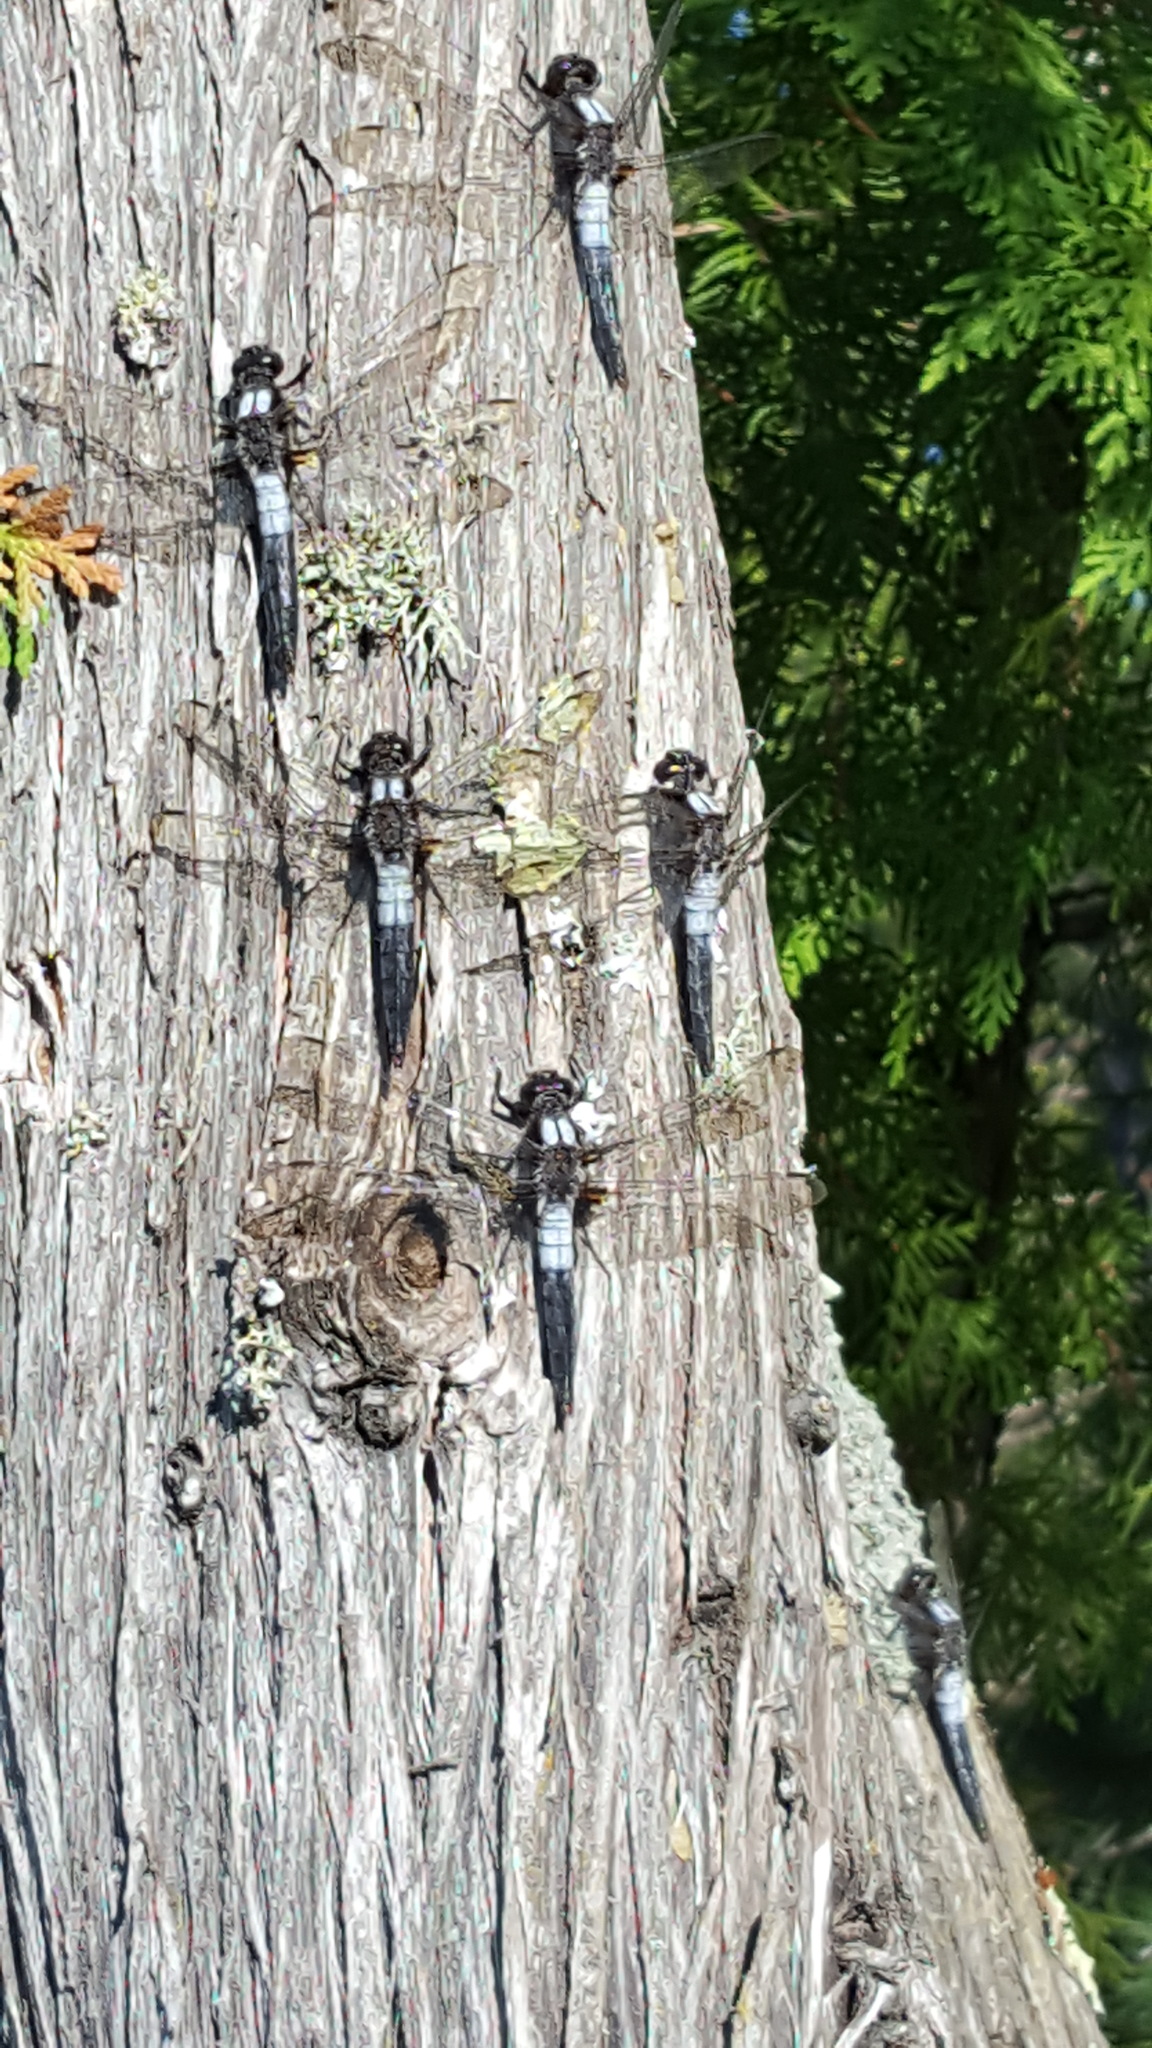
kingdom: Animalia
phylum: Arthropoda
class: Insecta
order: Odonata
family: Libellulidae
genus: Ladona
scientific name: Ladona julia
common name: Chalk-fronted corporal
